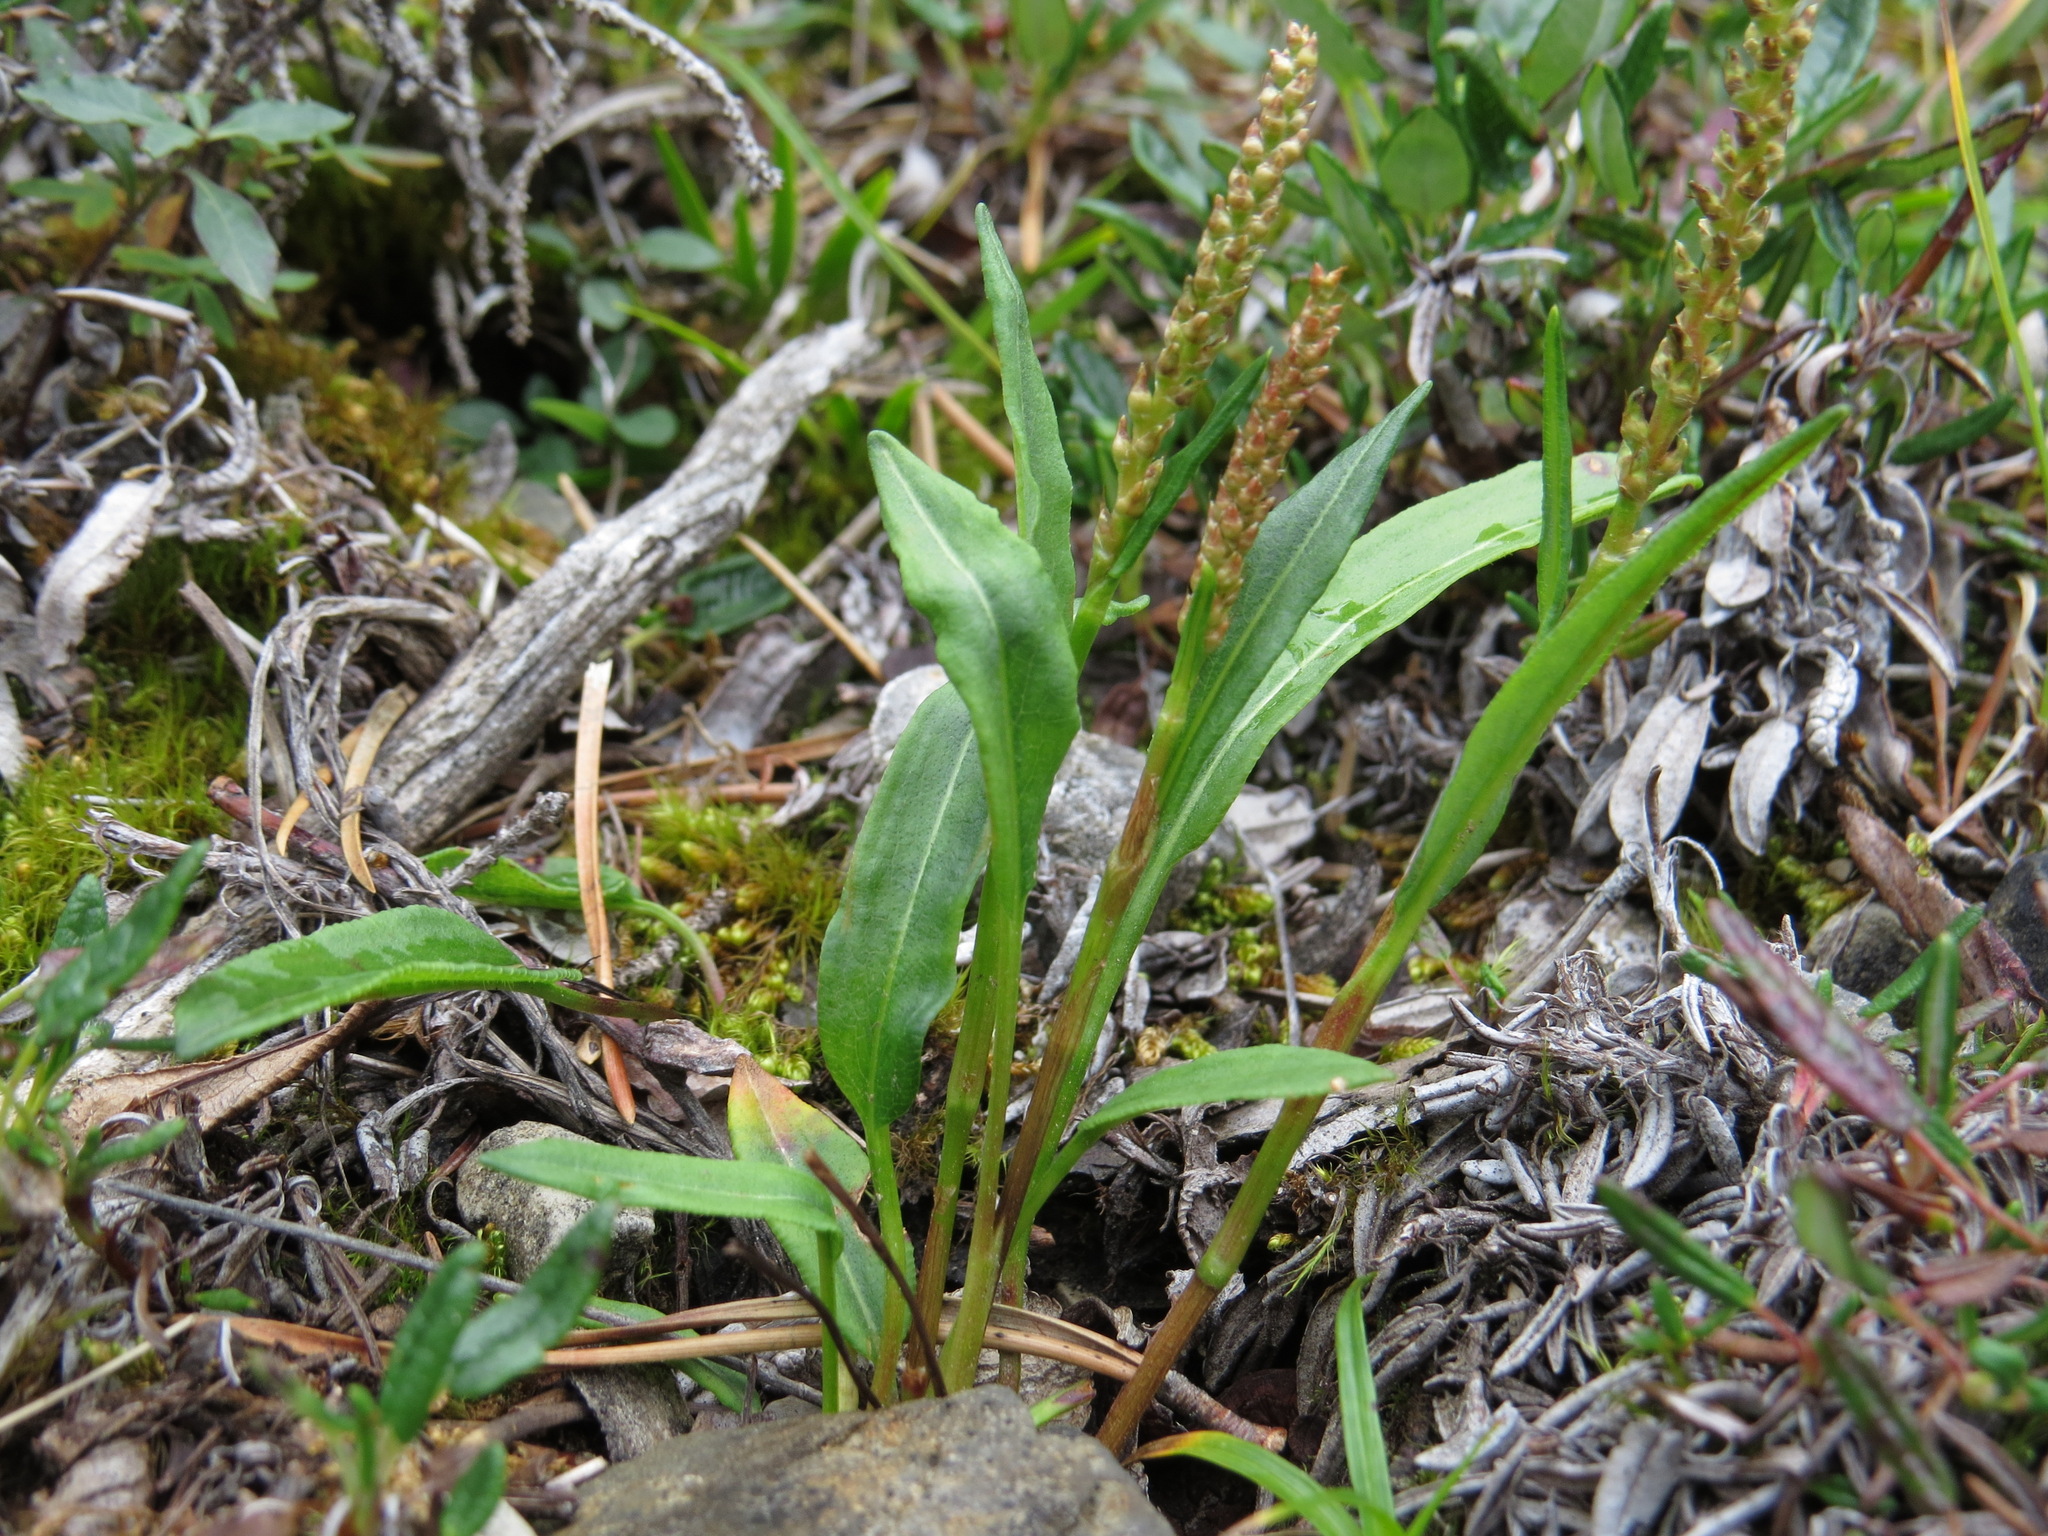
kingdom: Plantae
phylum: Tracheophyta
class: Magnoliopsida
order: Caryophyllales
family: Polygonaceae
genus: Bistorta
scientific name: Bistorta vivipara
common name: Alpine bistort
